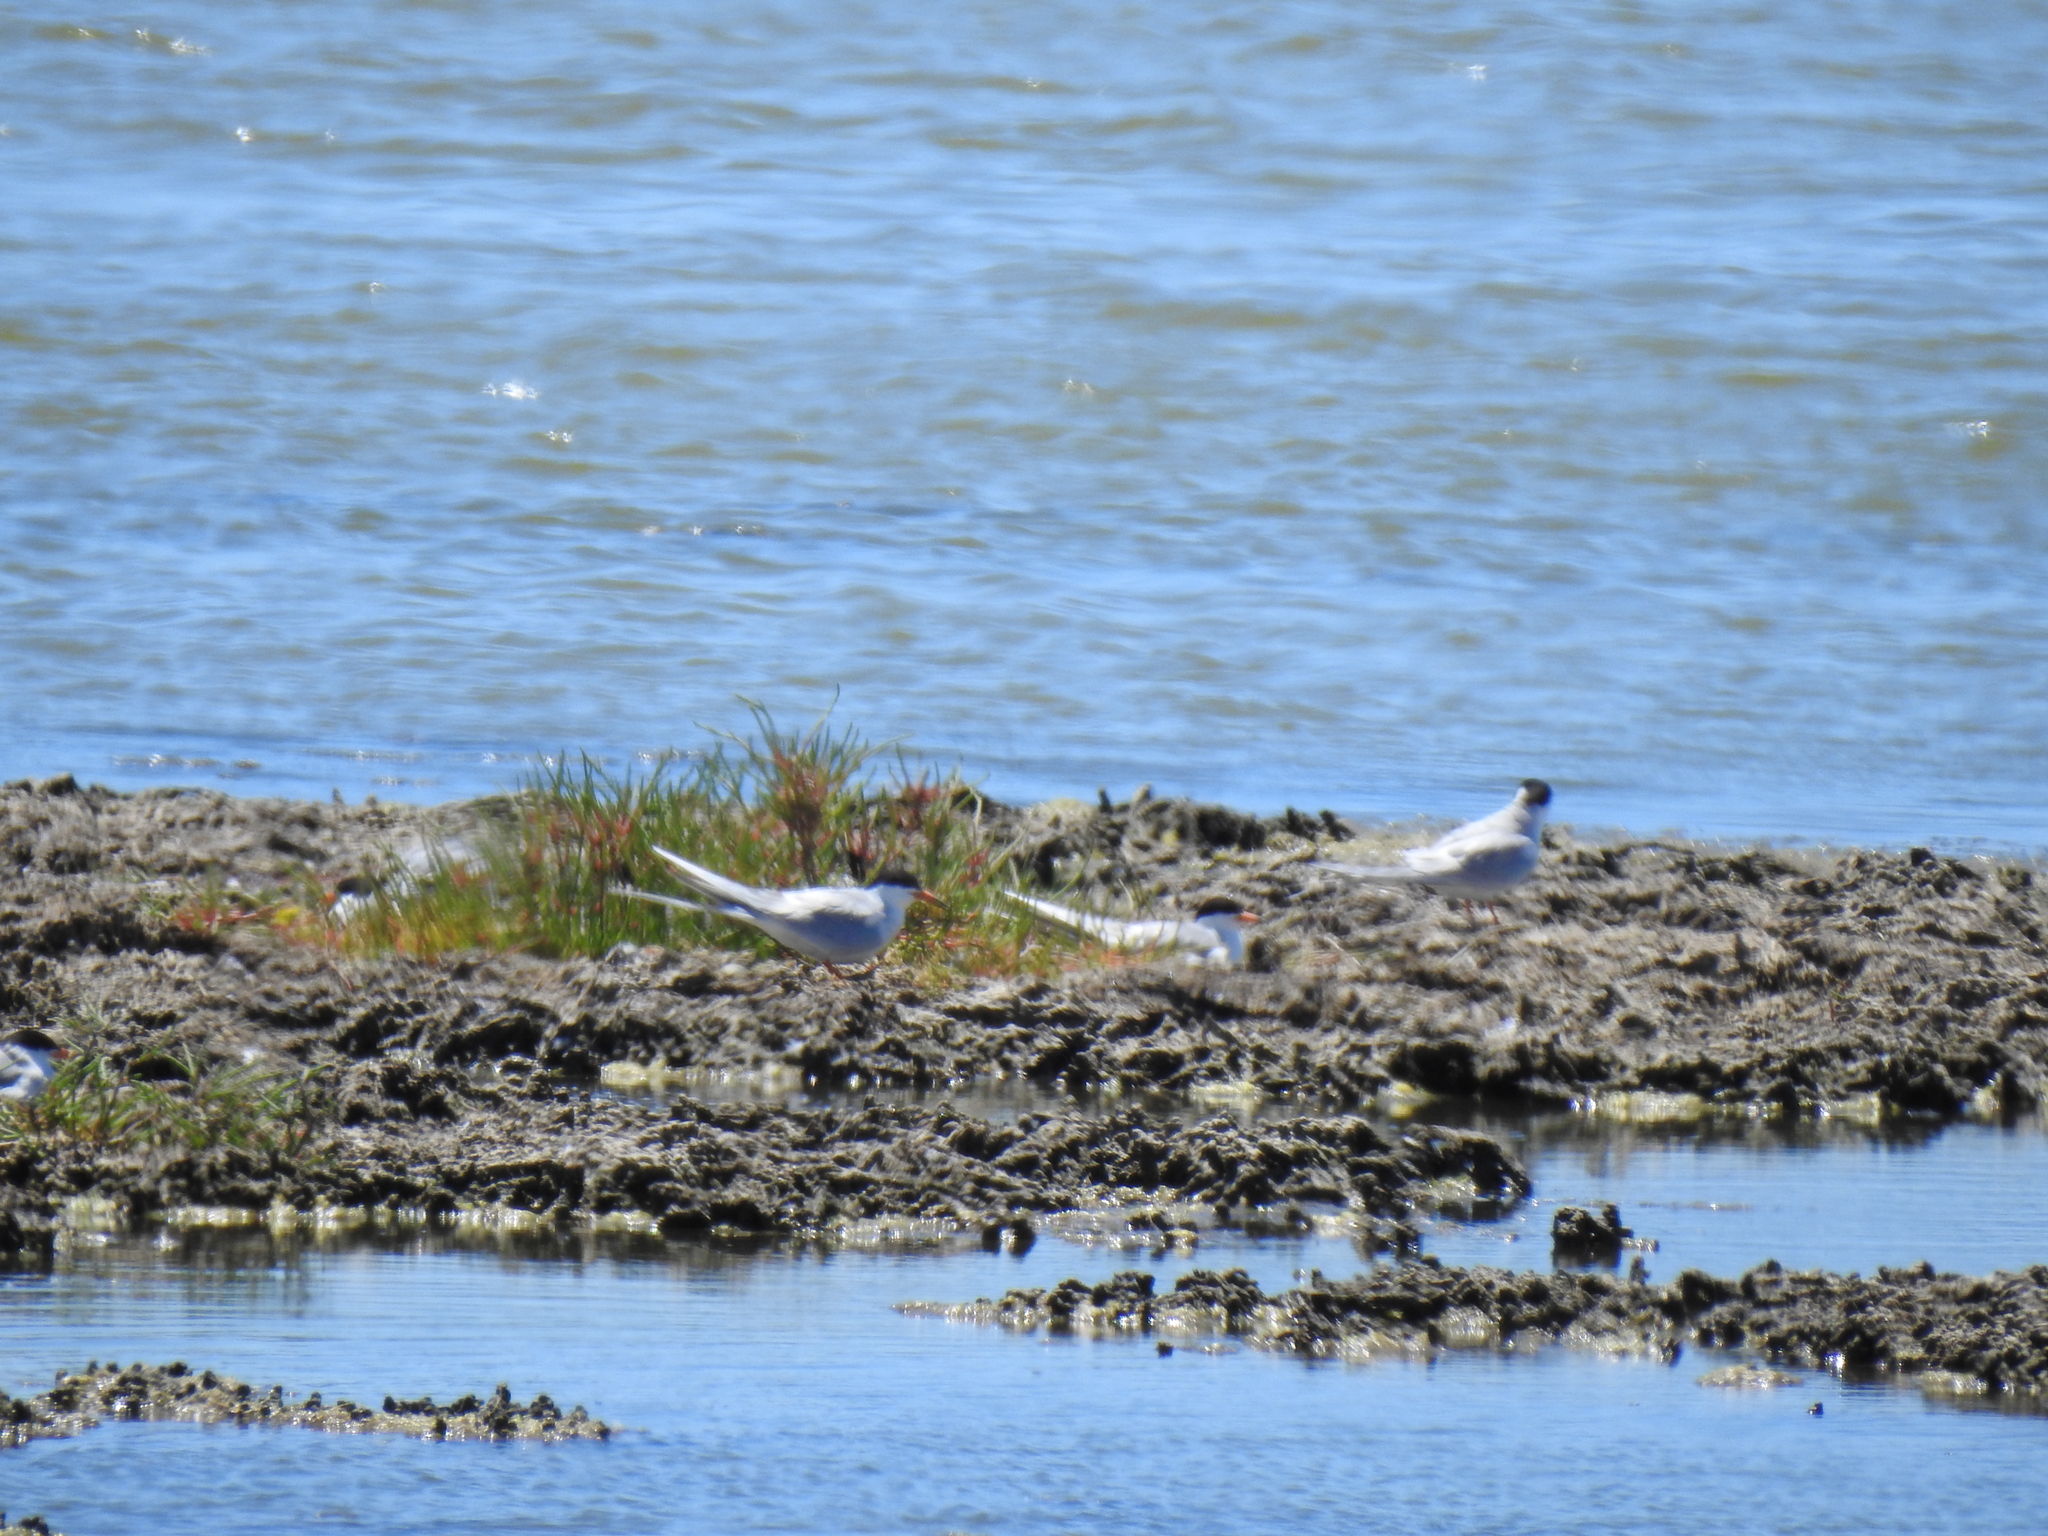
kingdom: Animalia
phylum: Chordata
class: Aves
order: Charadriiformes
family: Laridae
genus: Sterna
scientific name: Sterna forsteri
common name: Forster's tern
